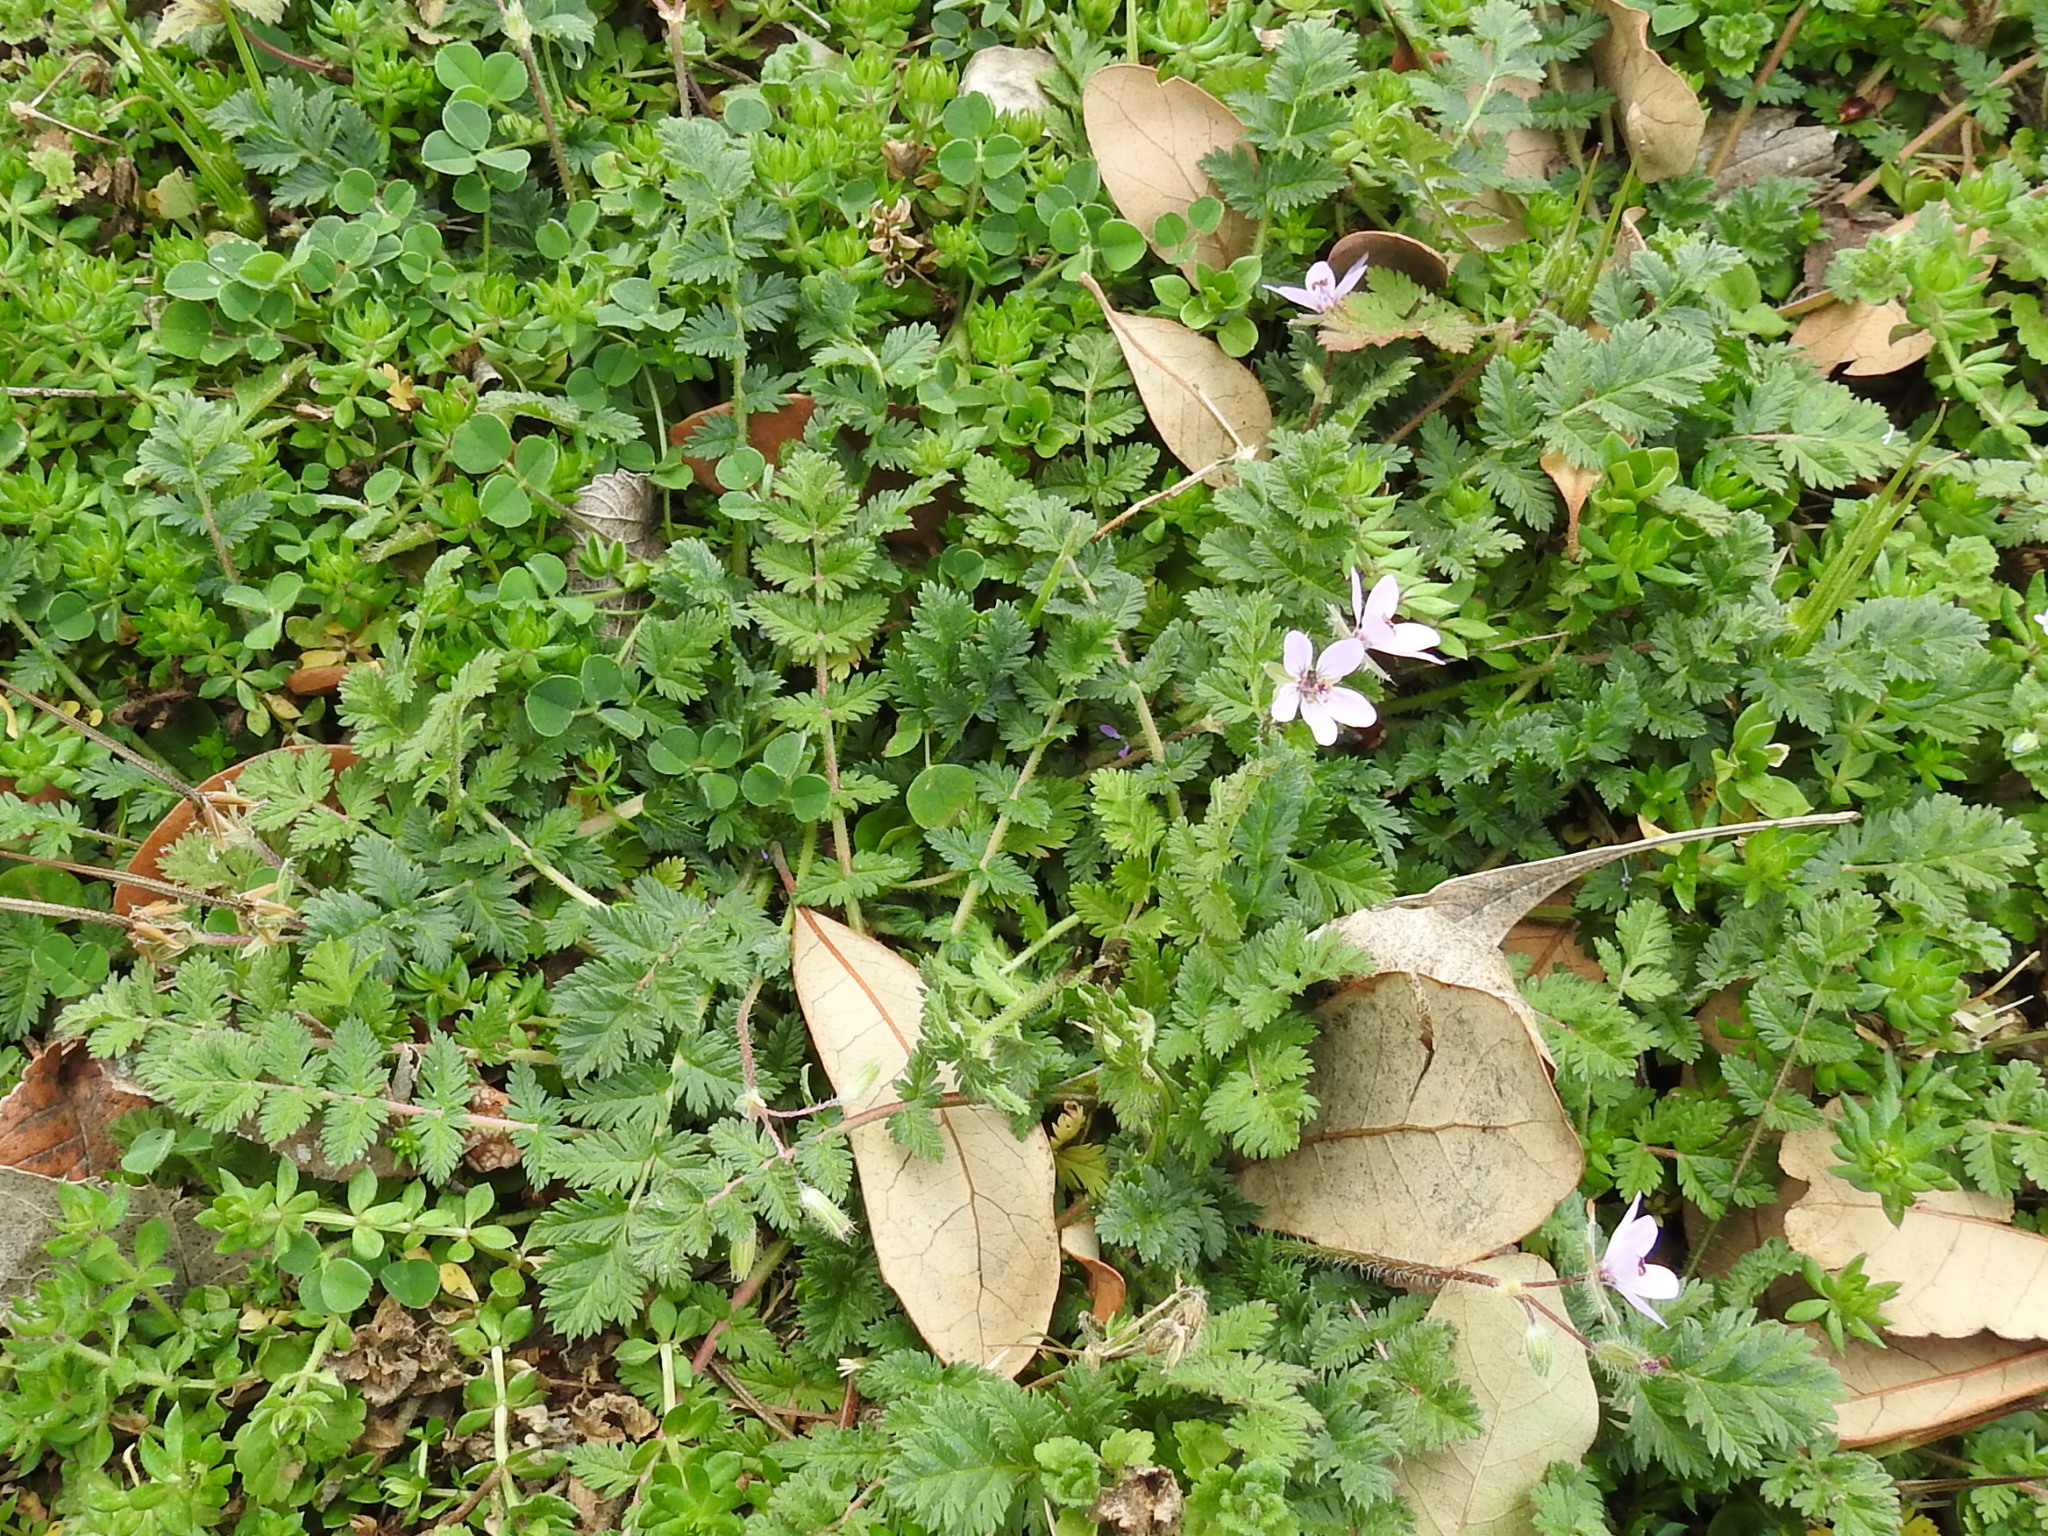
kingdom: Plantae
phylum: Tracheophyta
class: Magnoliopsida
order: Geraniales
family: Geraniaceae
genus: Erodium
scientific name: Erodium cicutarium
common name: Common stork's-bill
